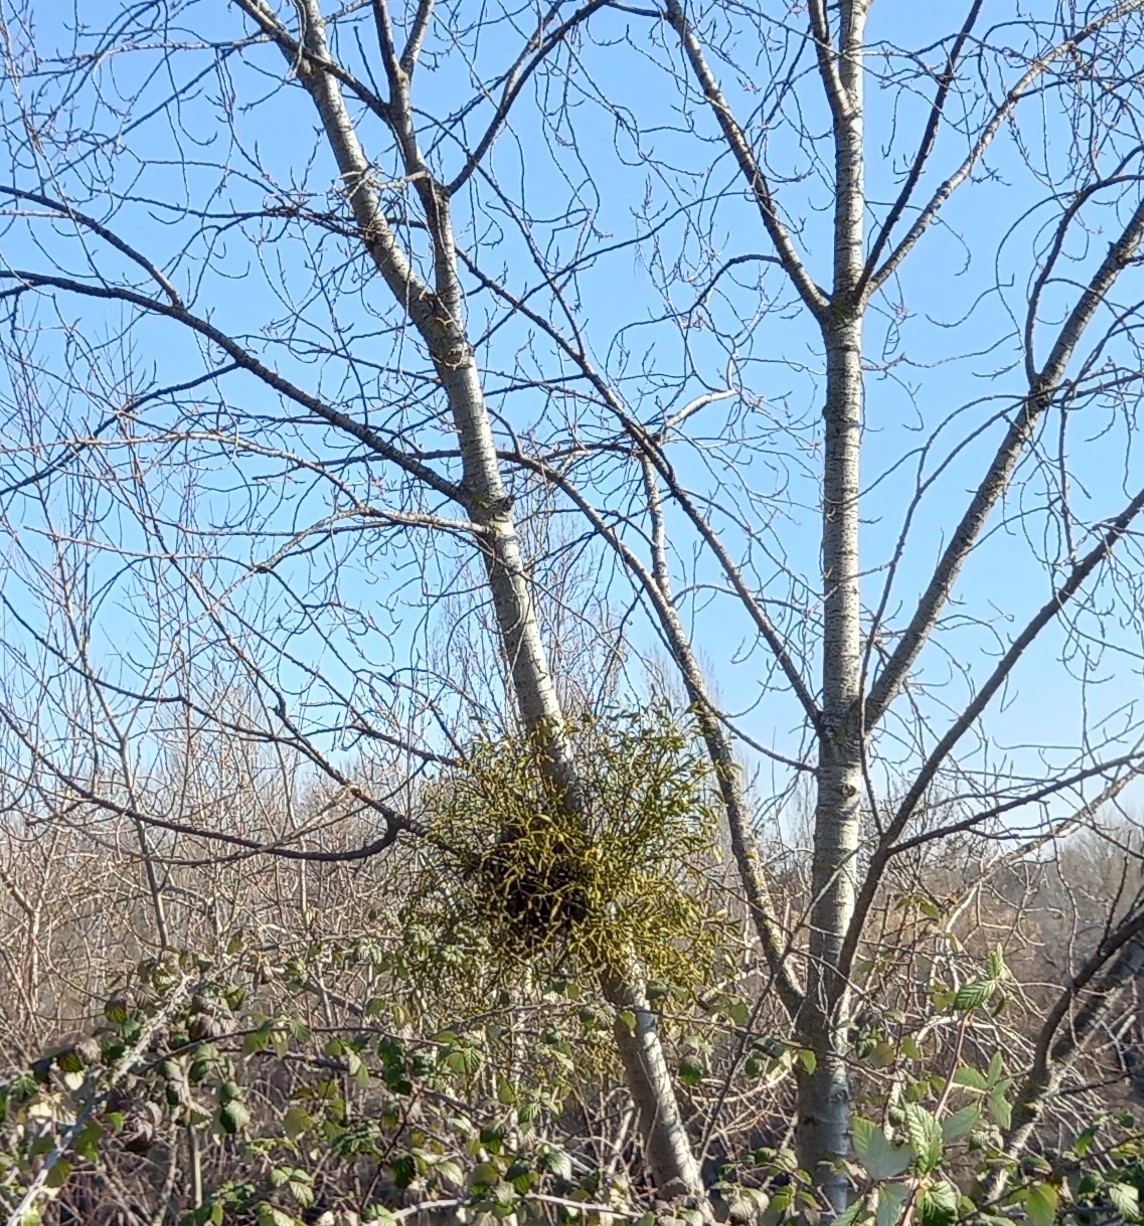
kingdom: Plantae
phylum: Tracheophyta
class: Magnoliopsida
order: Santalales
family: Viscaceae
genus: Viscum
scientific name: Viscum album
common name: Mistletoe
